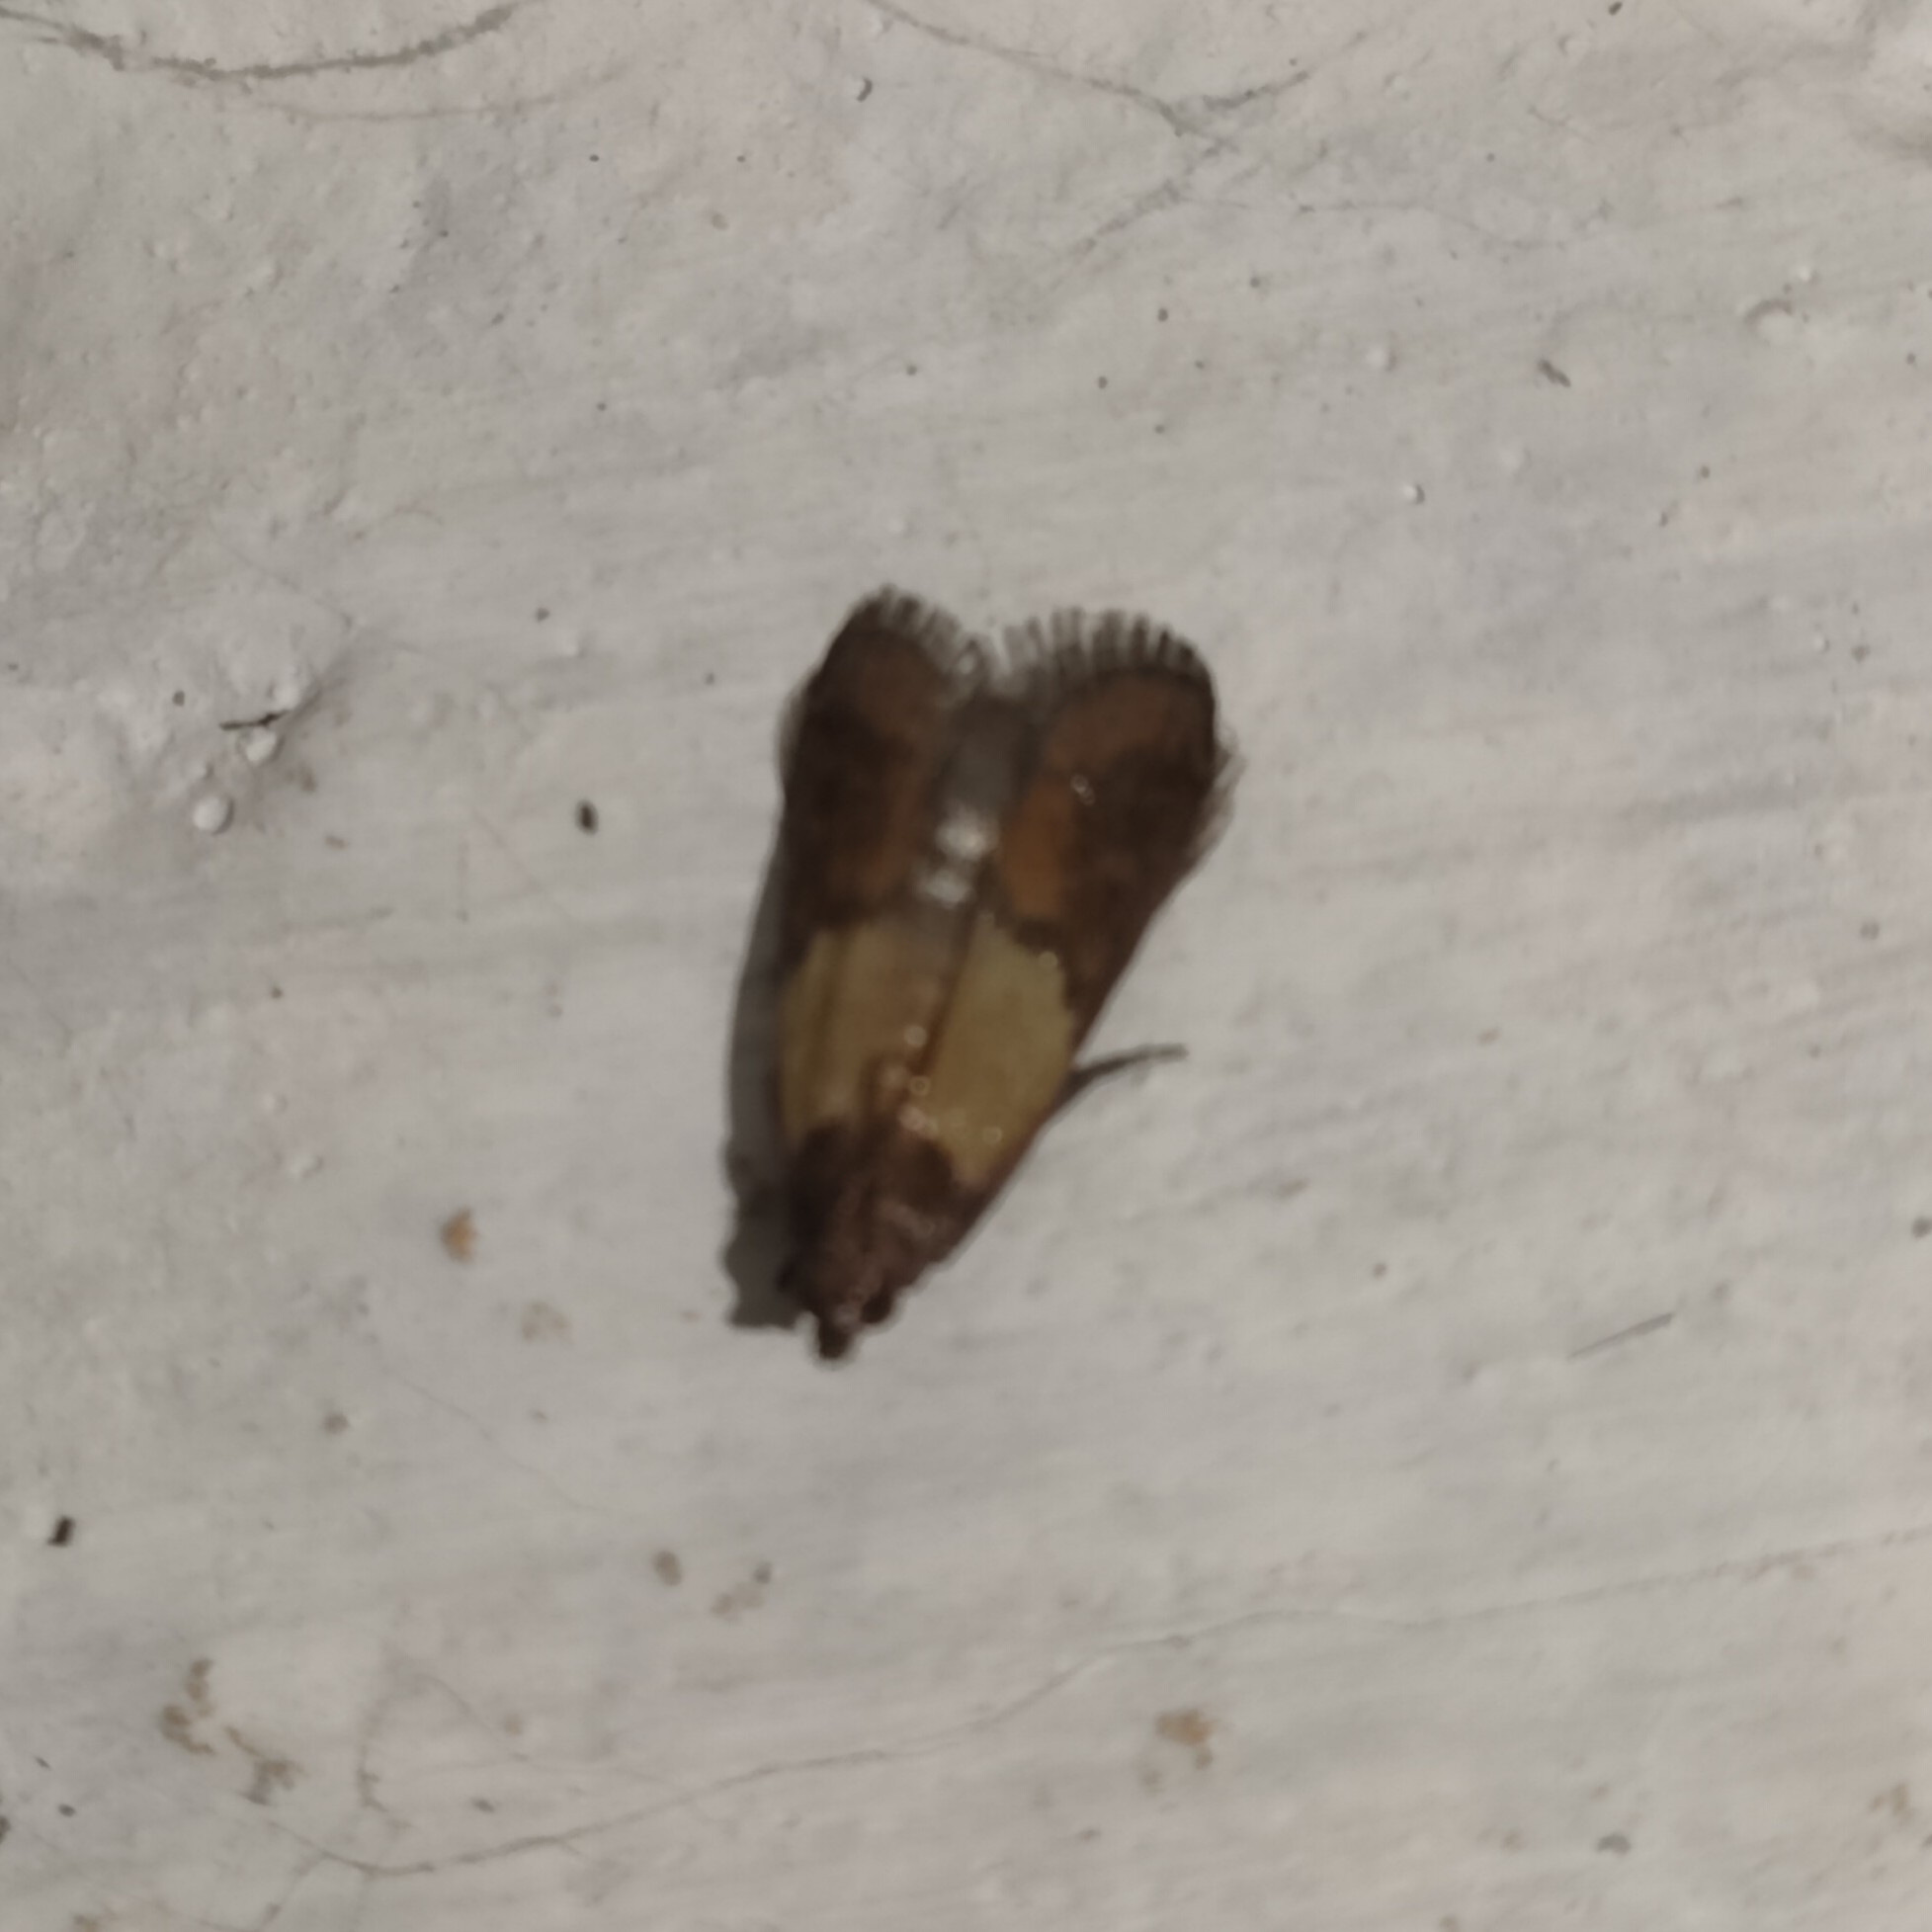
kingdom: Animalia
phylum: Arthropoda
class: Insecta
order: Lepidoptera
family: Pyralidae
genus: Plodia
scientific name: Plodia interpunctella
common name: Indian meal moth
